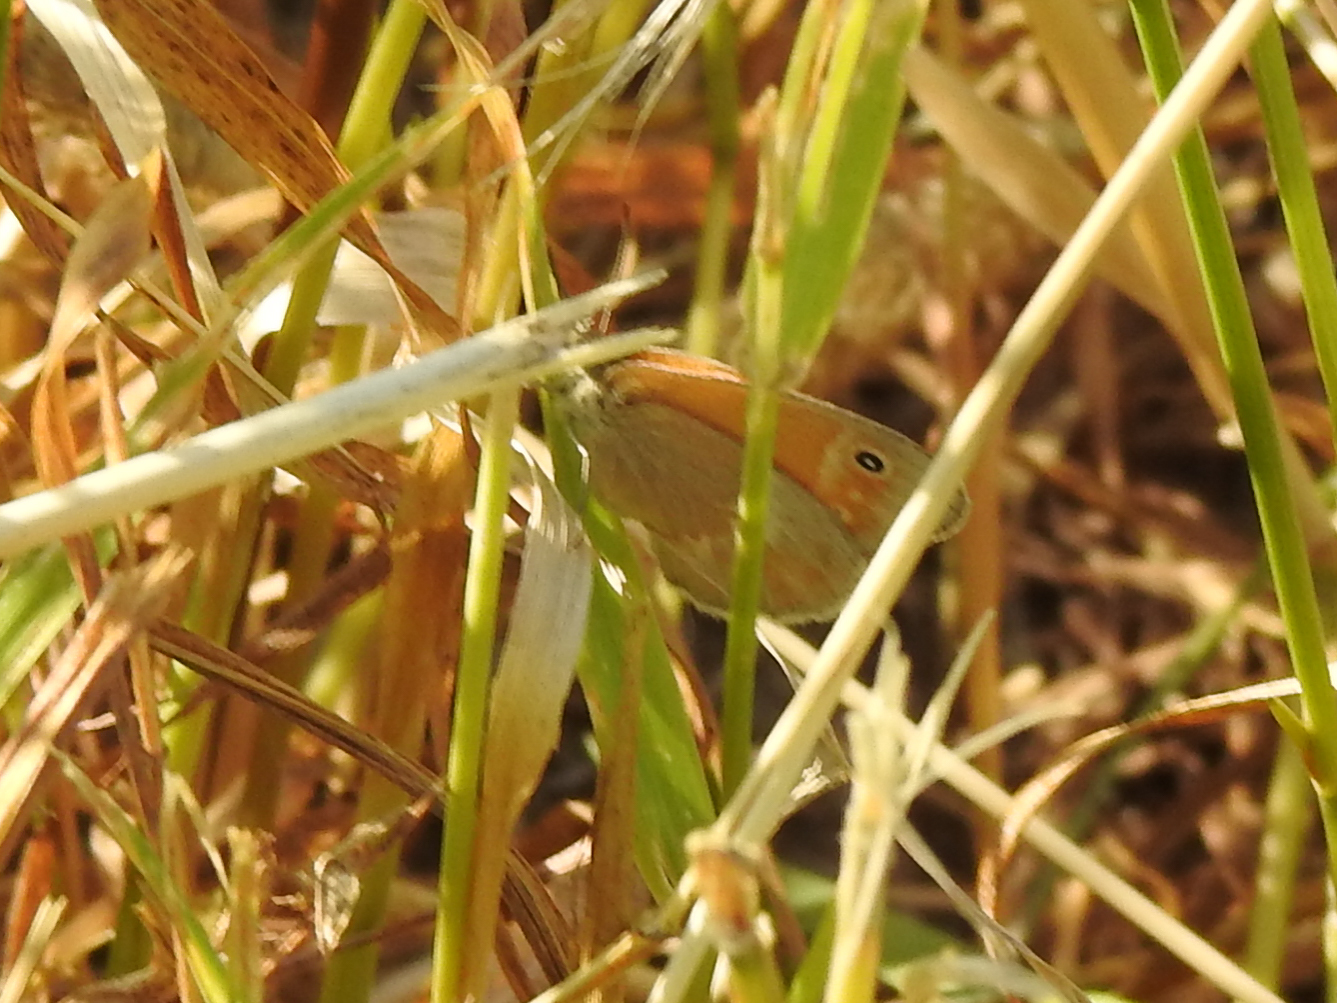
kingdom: Animalia
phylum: Arthropoda
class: Insecta
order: Lepidoptera
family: Nymphalidae
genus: Coenonympha
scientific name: Coenonympha california
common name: Common ringlet
